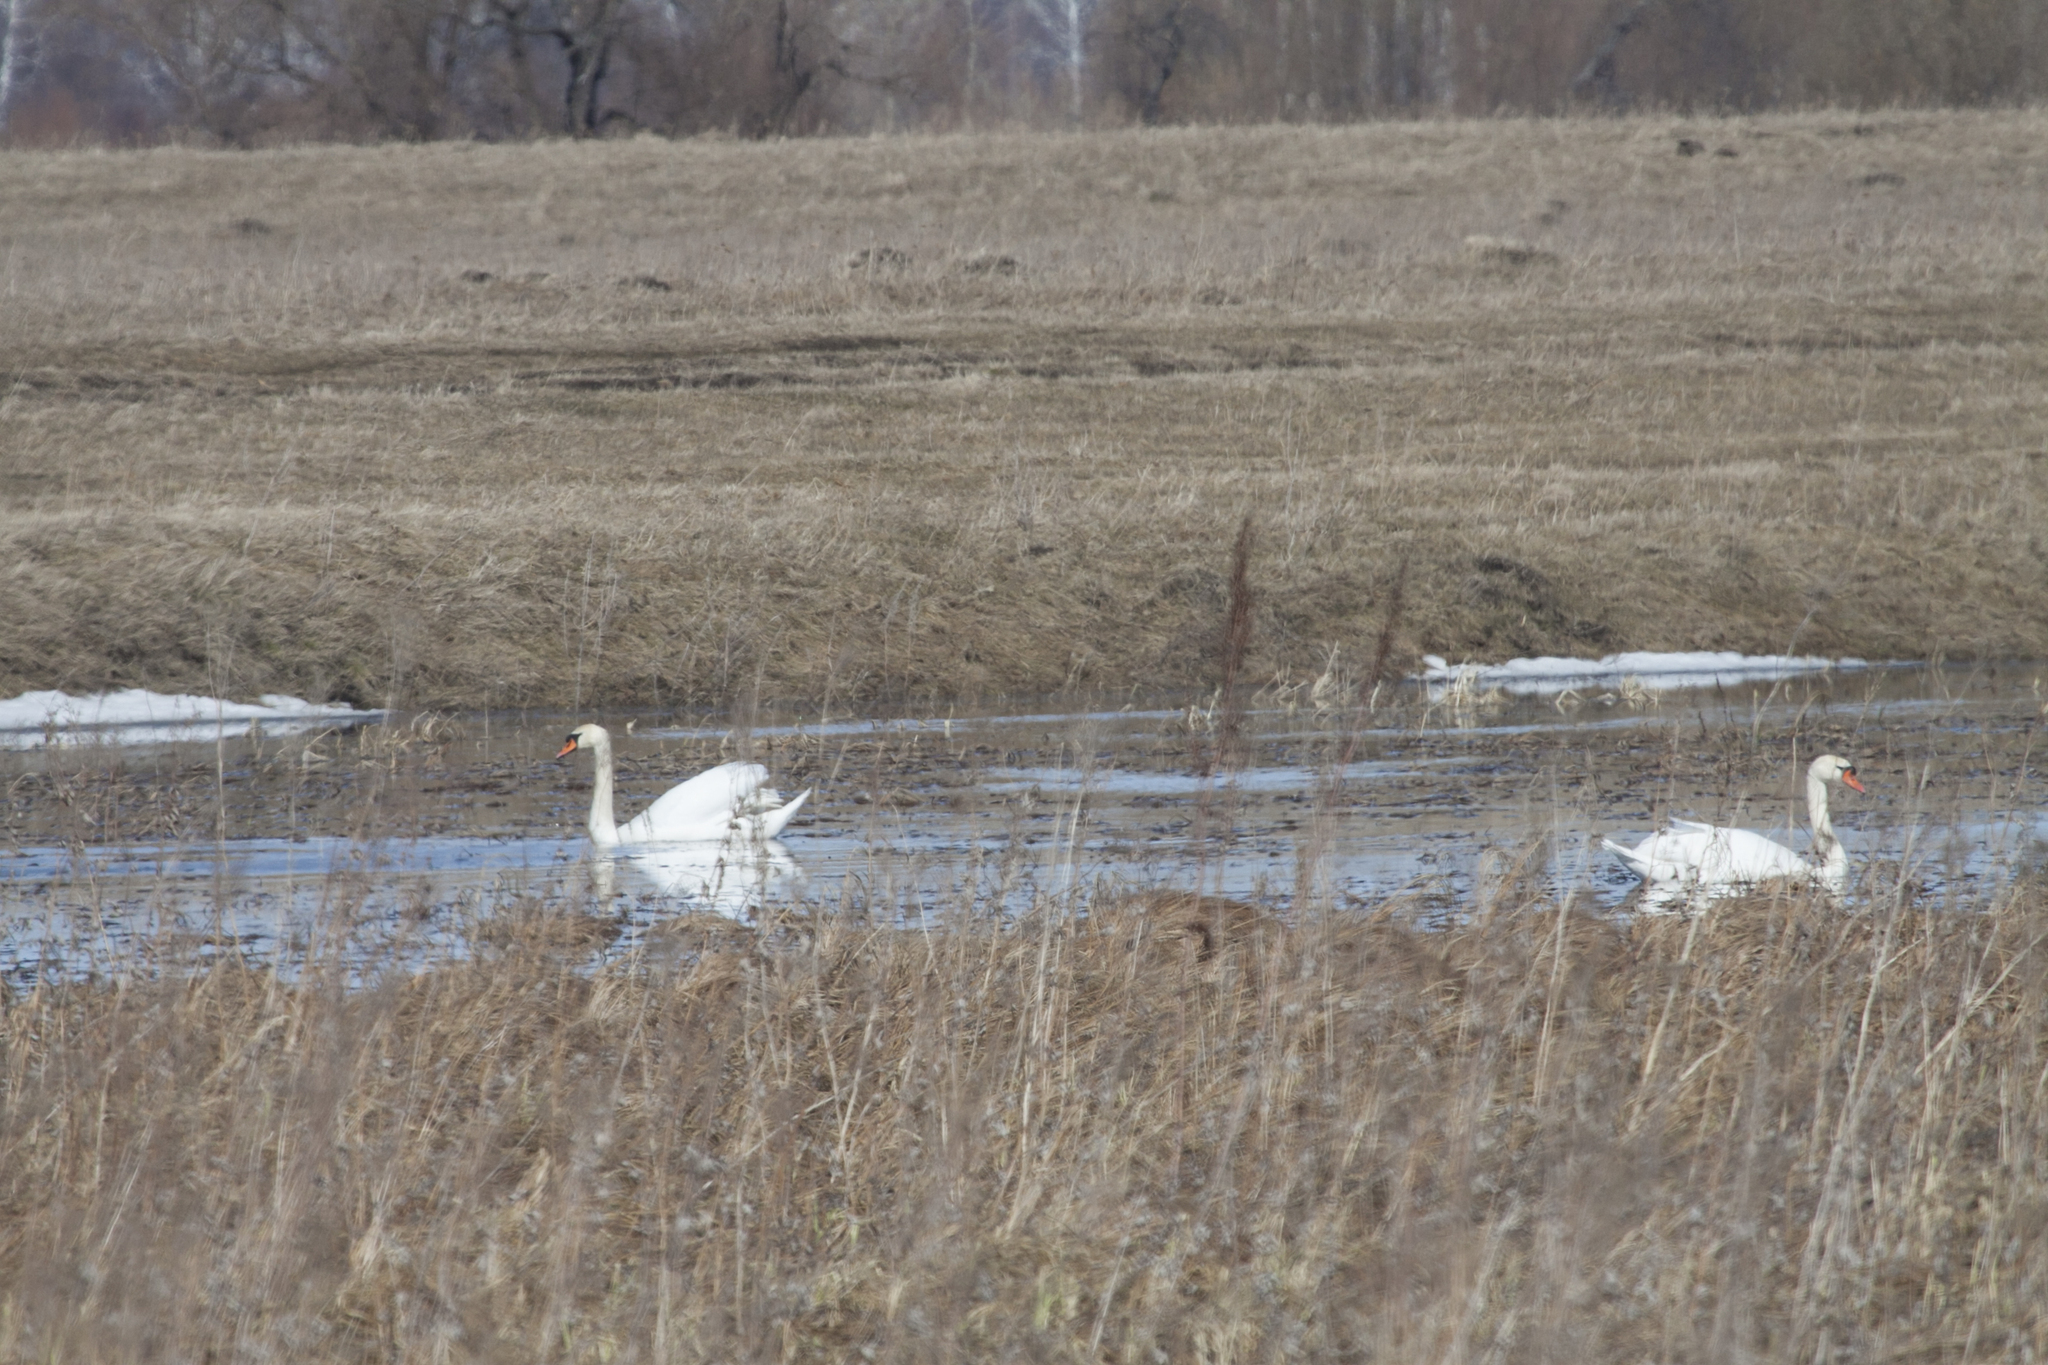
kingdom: Animalia
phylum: Chordata
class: Aves
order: Anseriformes
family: Anatidae
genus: Cygnus
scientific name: Cygnus olor
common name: Mute swan
